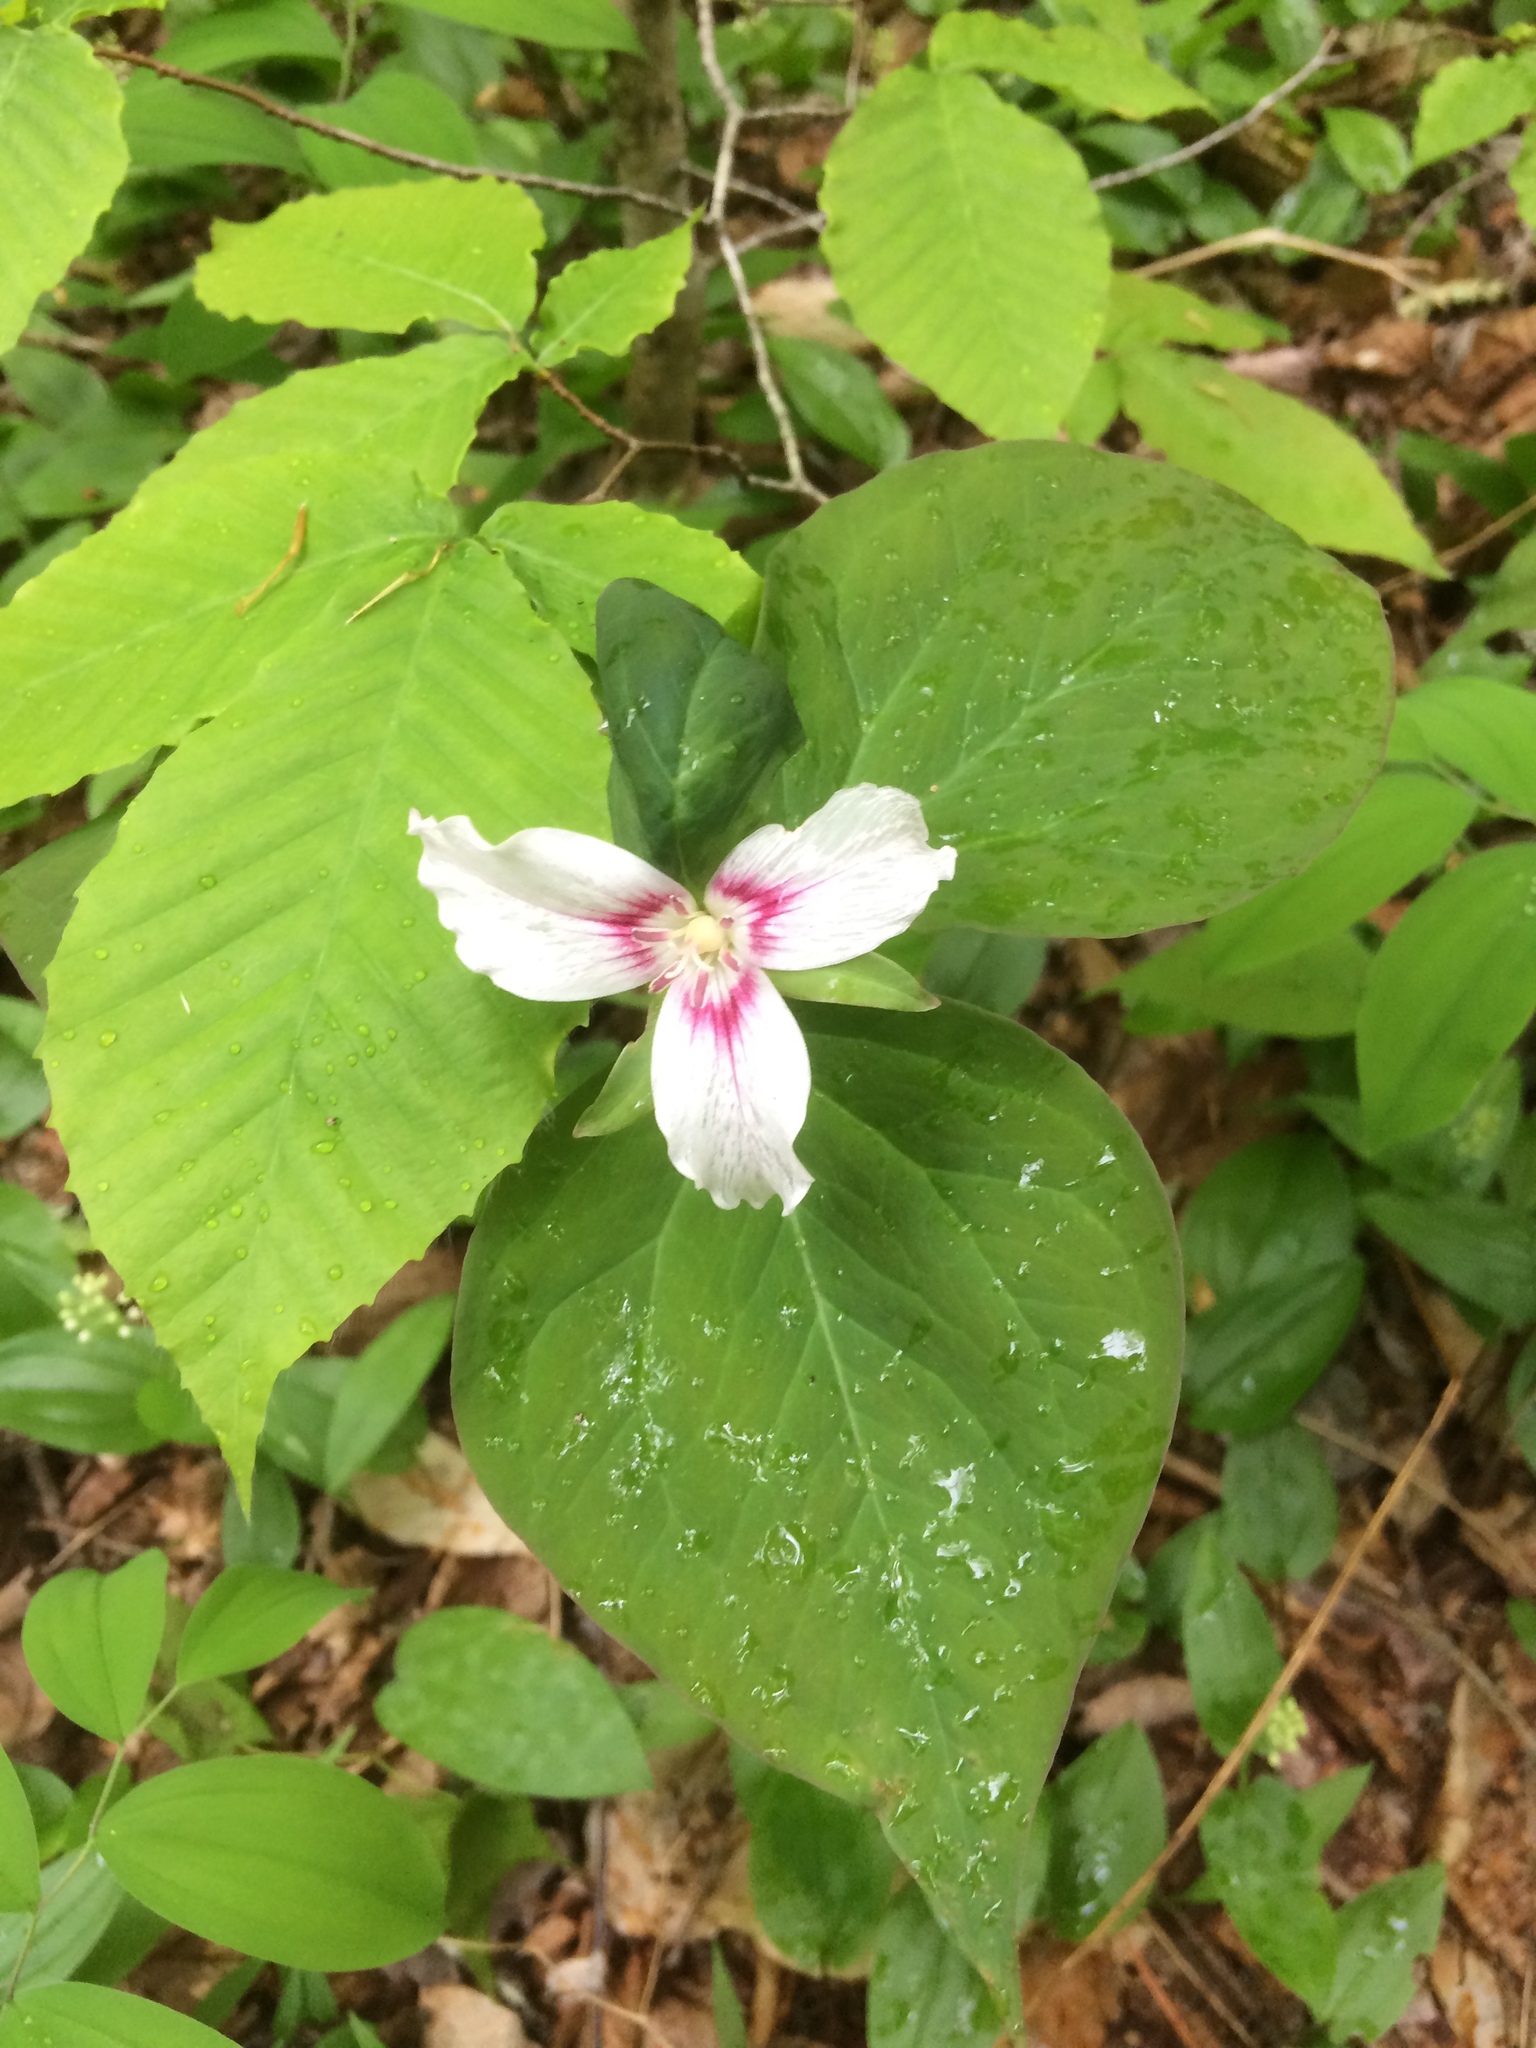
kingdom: Plantae
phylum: Tracheophyta
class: Liliopsida
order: Liliales
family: Melanthiaceae
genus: Trillium
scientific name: Trillium undulatum
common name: Paint trillium
